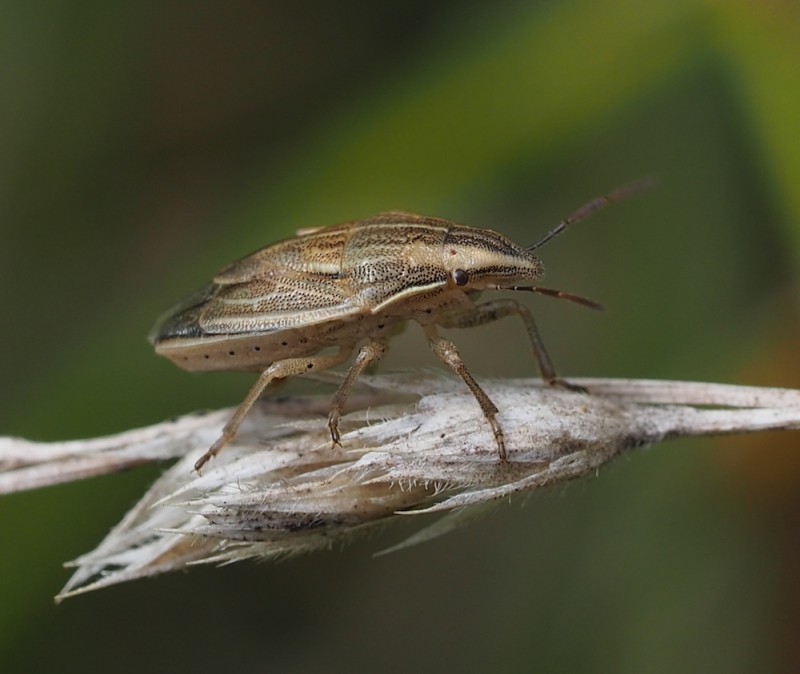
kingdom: Animalia
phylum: Arthropoda
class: Insecta
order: Hemiptera
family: Pentatomidae
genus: Aelia
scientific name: Aelia acuminata
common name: Bishop's mitre
